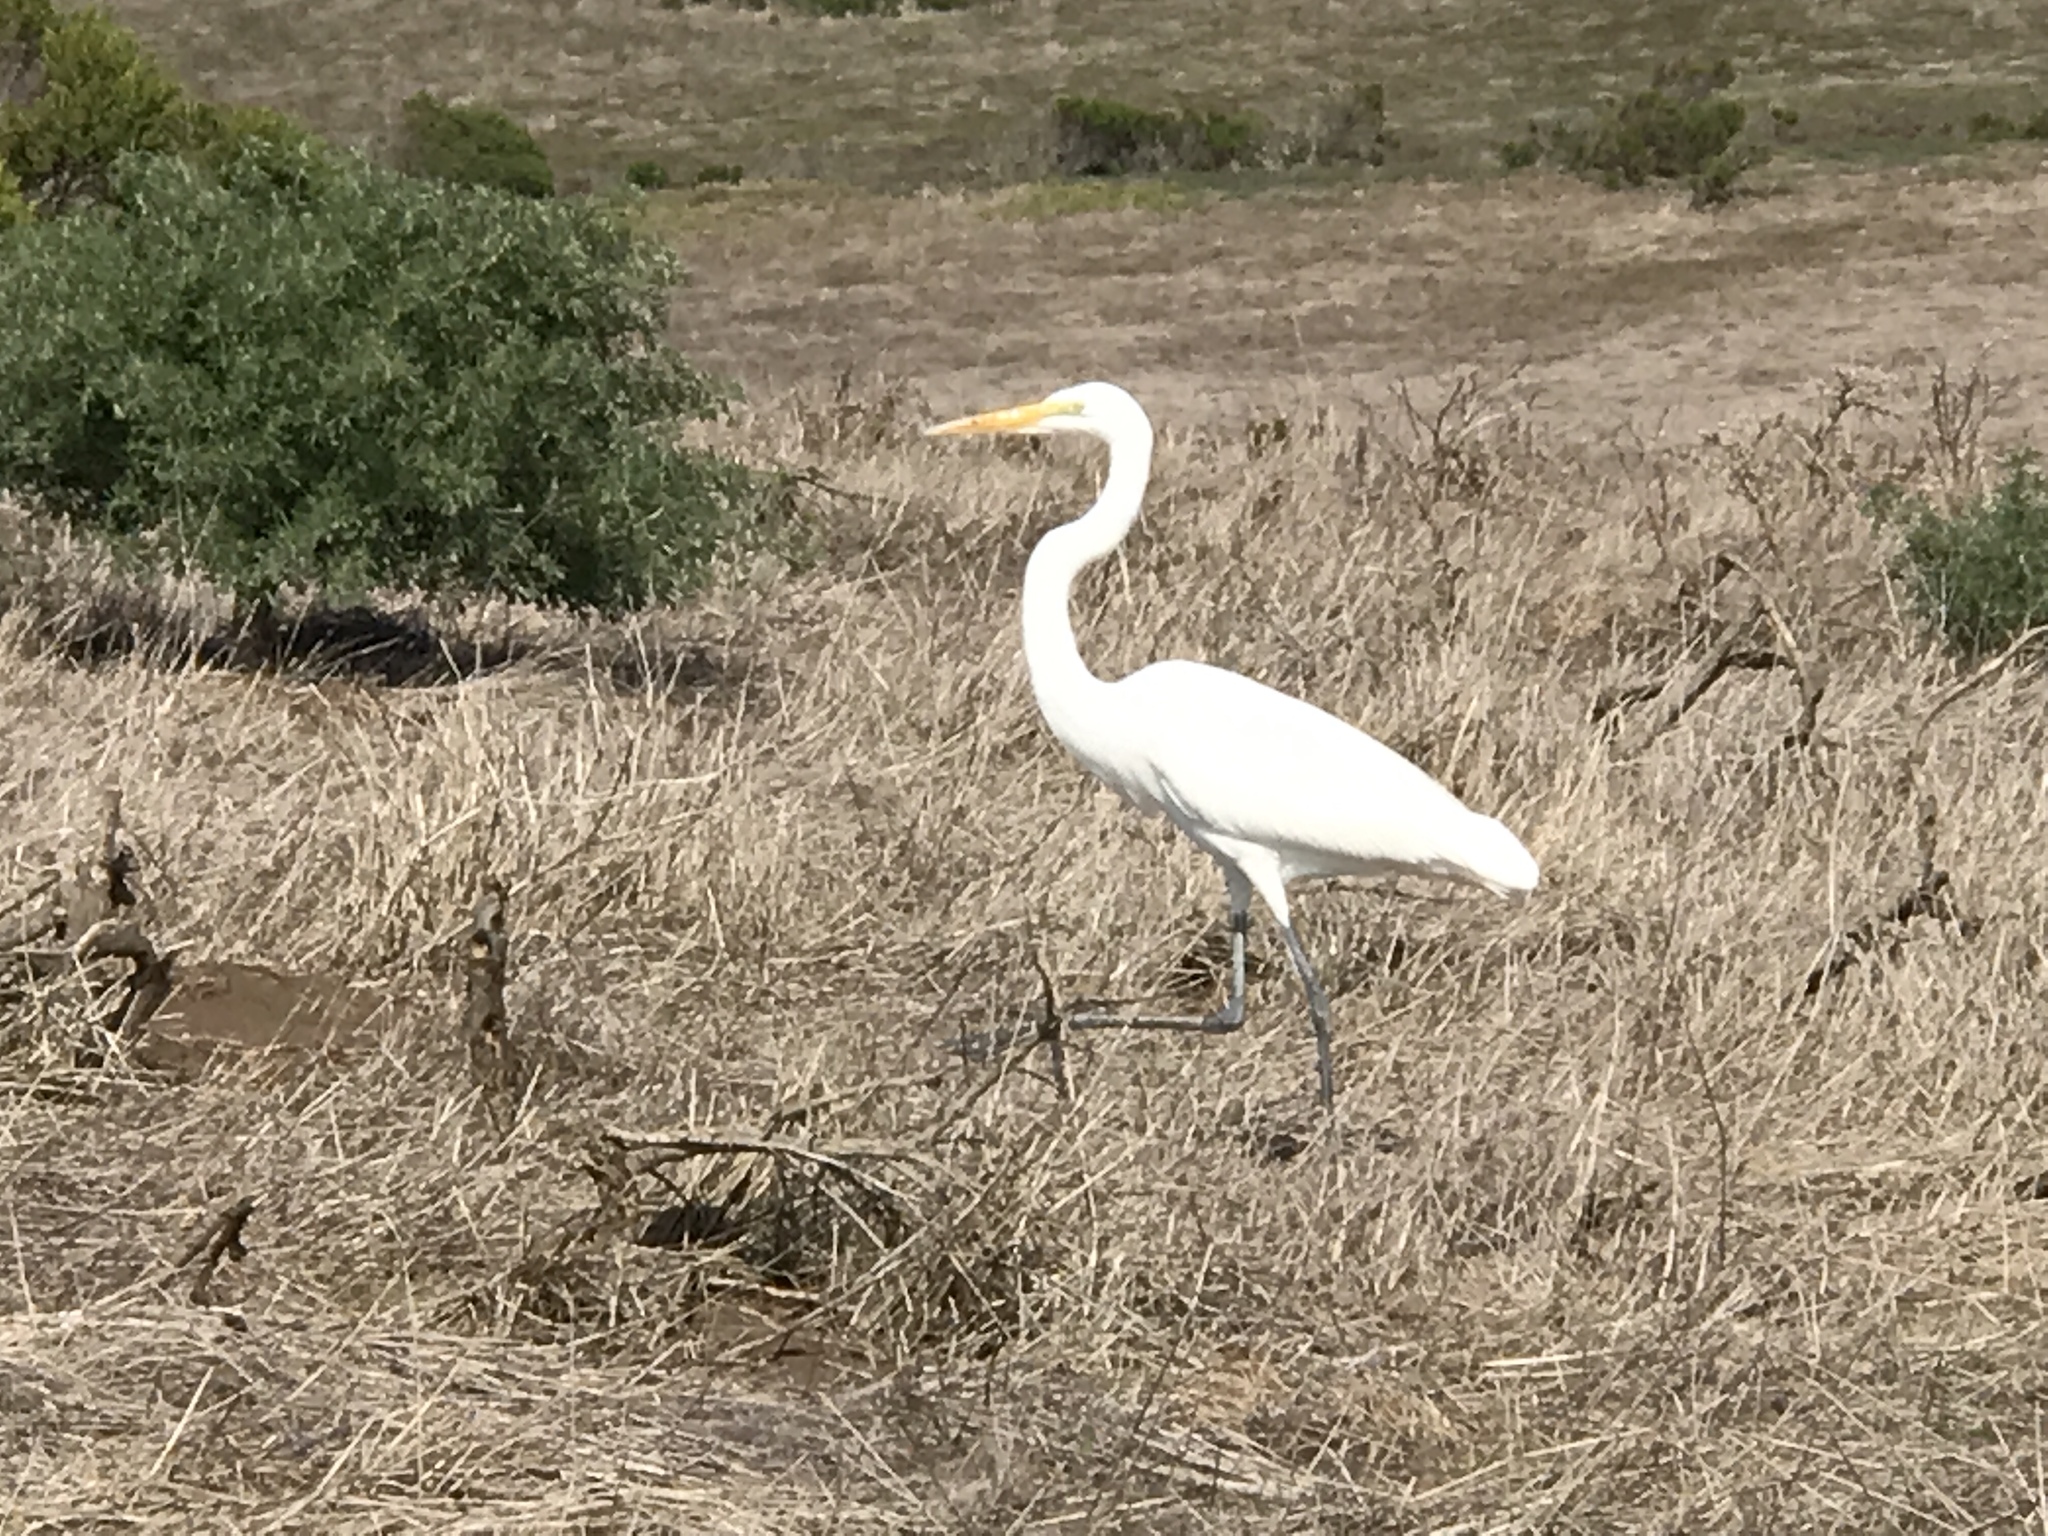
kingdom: Animalia
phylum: Chordata
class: Aves
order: Pelecaniformes
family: Ardeidae
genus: Ardea
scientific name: Ardea alba
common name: Great egret
